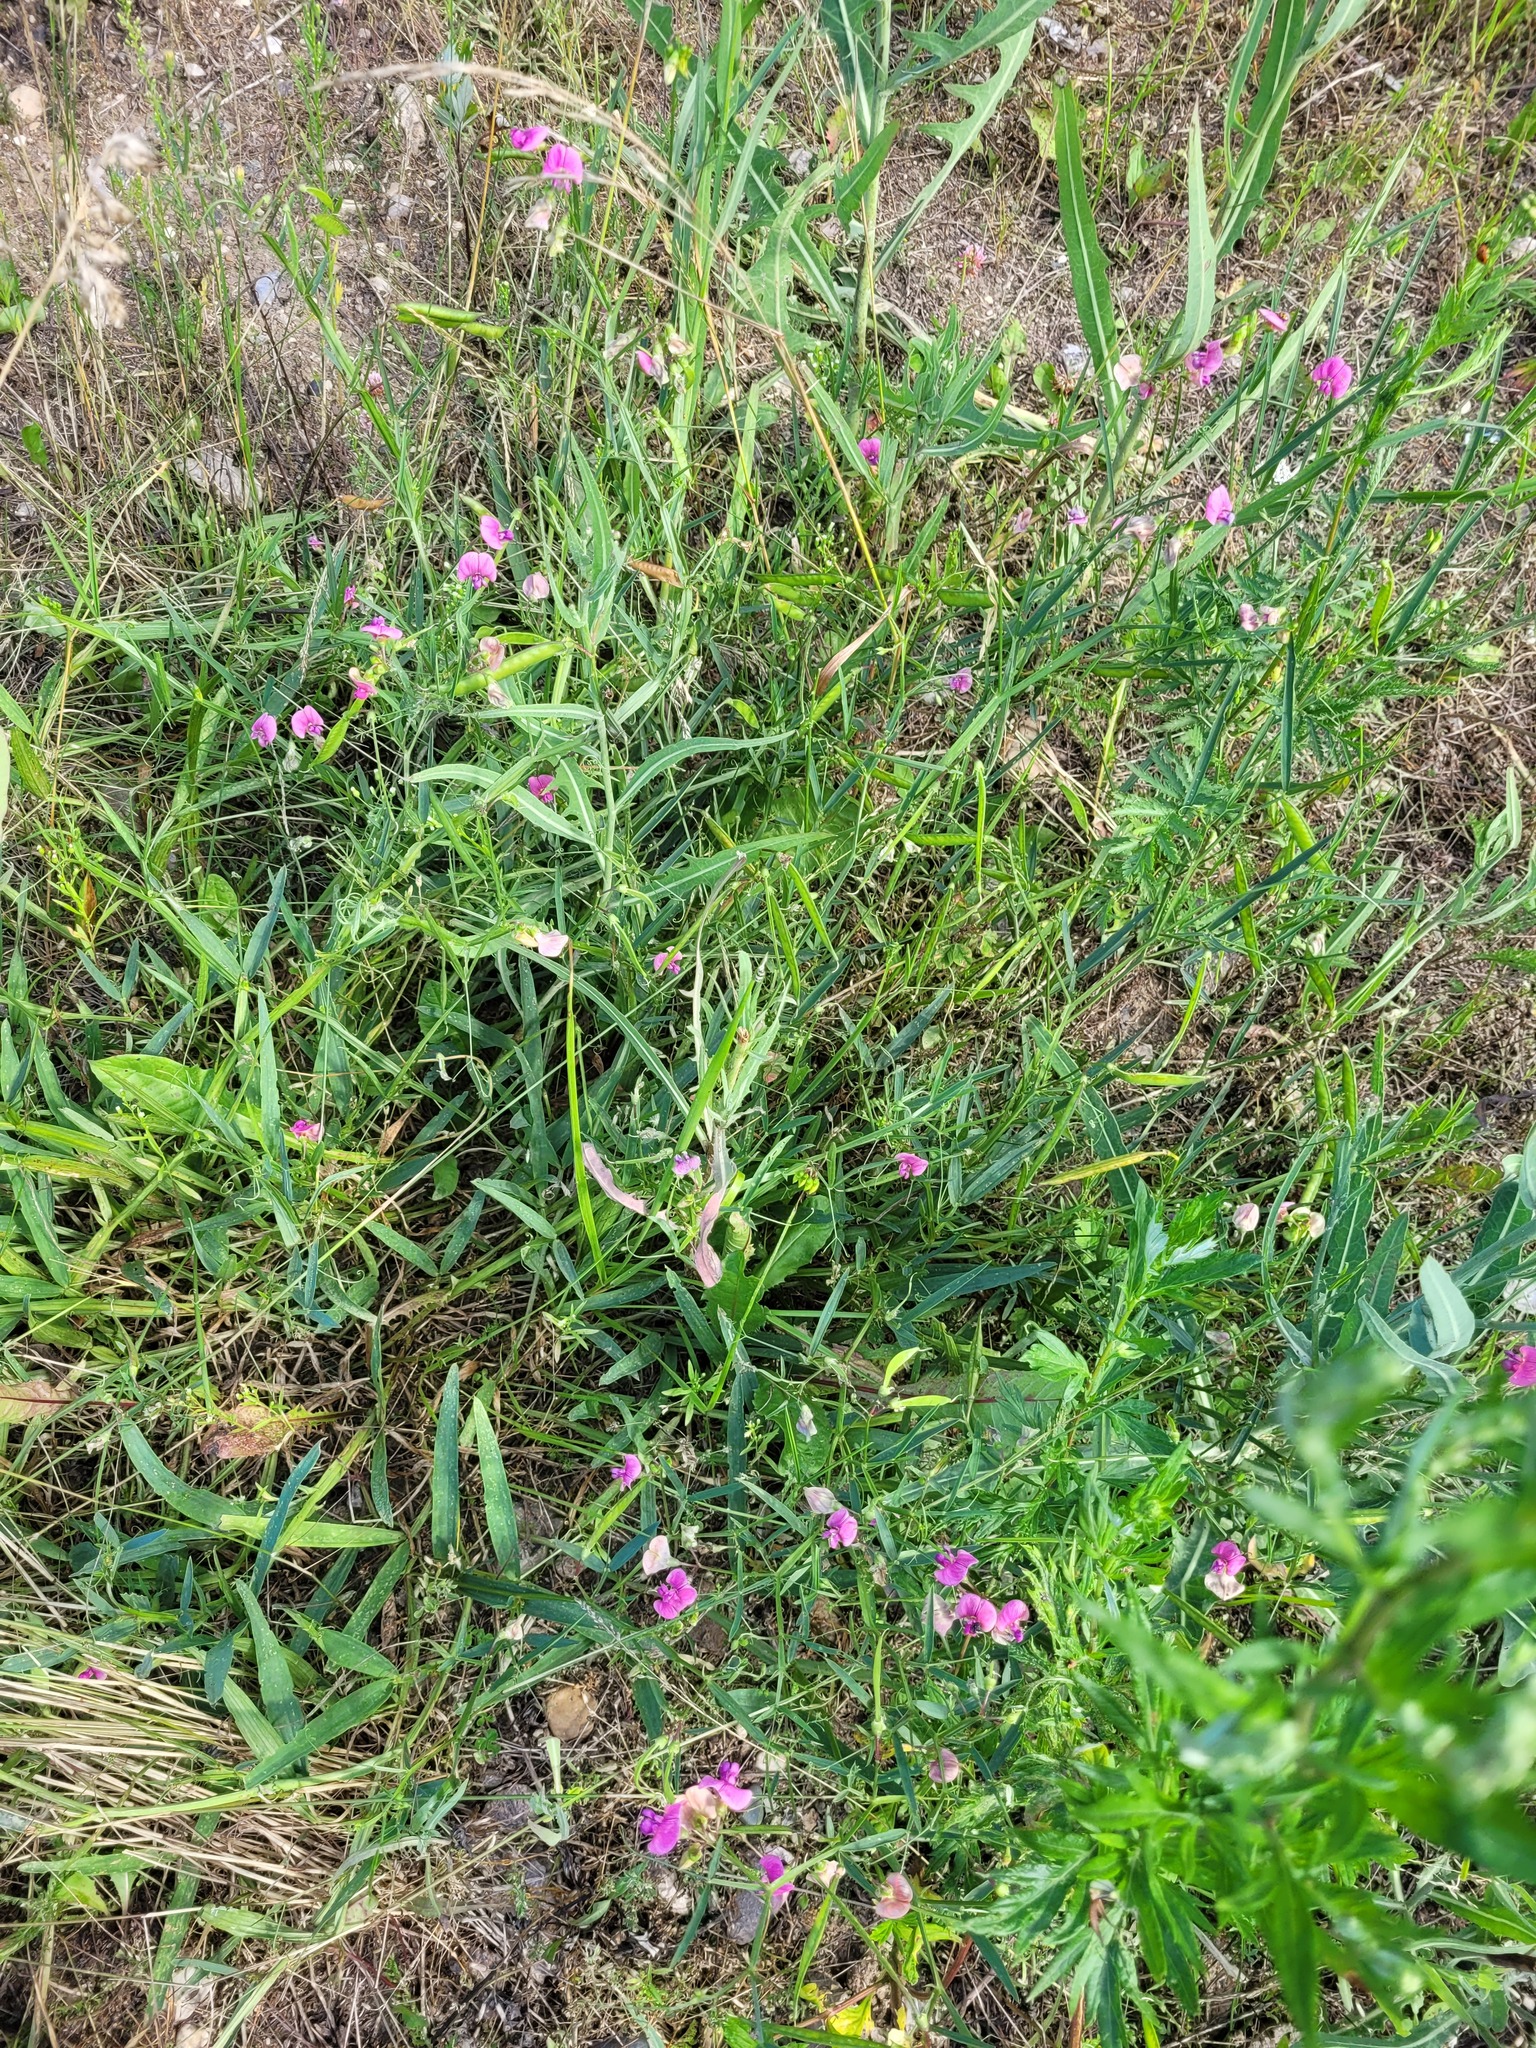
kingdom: Plantae
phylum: Tracheophyta
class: Magnoliopsida
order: Fabales
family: Fabaceae
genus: Lathyrus
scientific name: Lathyrus sylvestris
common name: Flat pea
